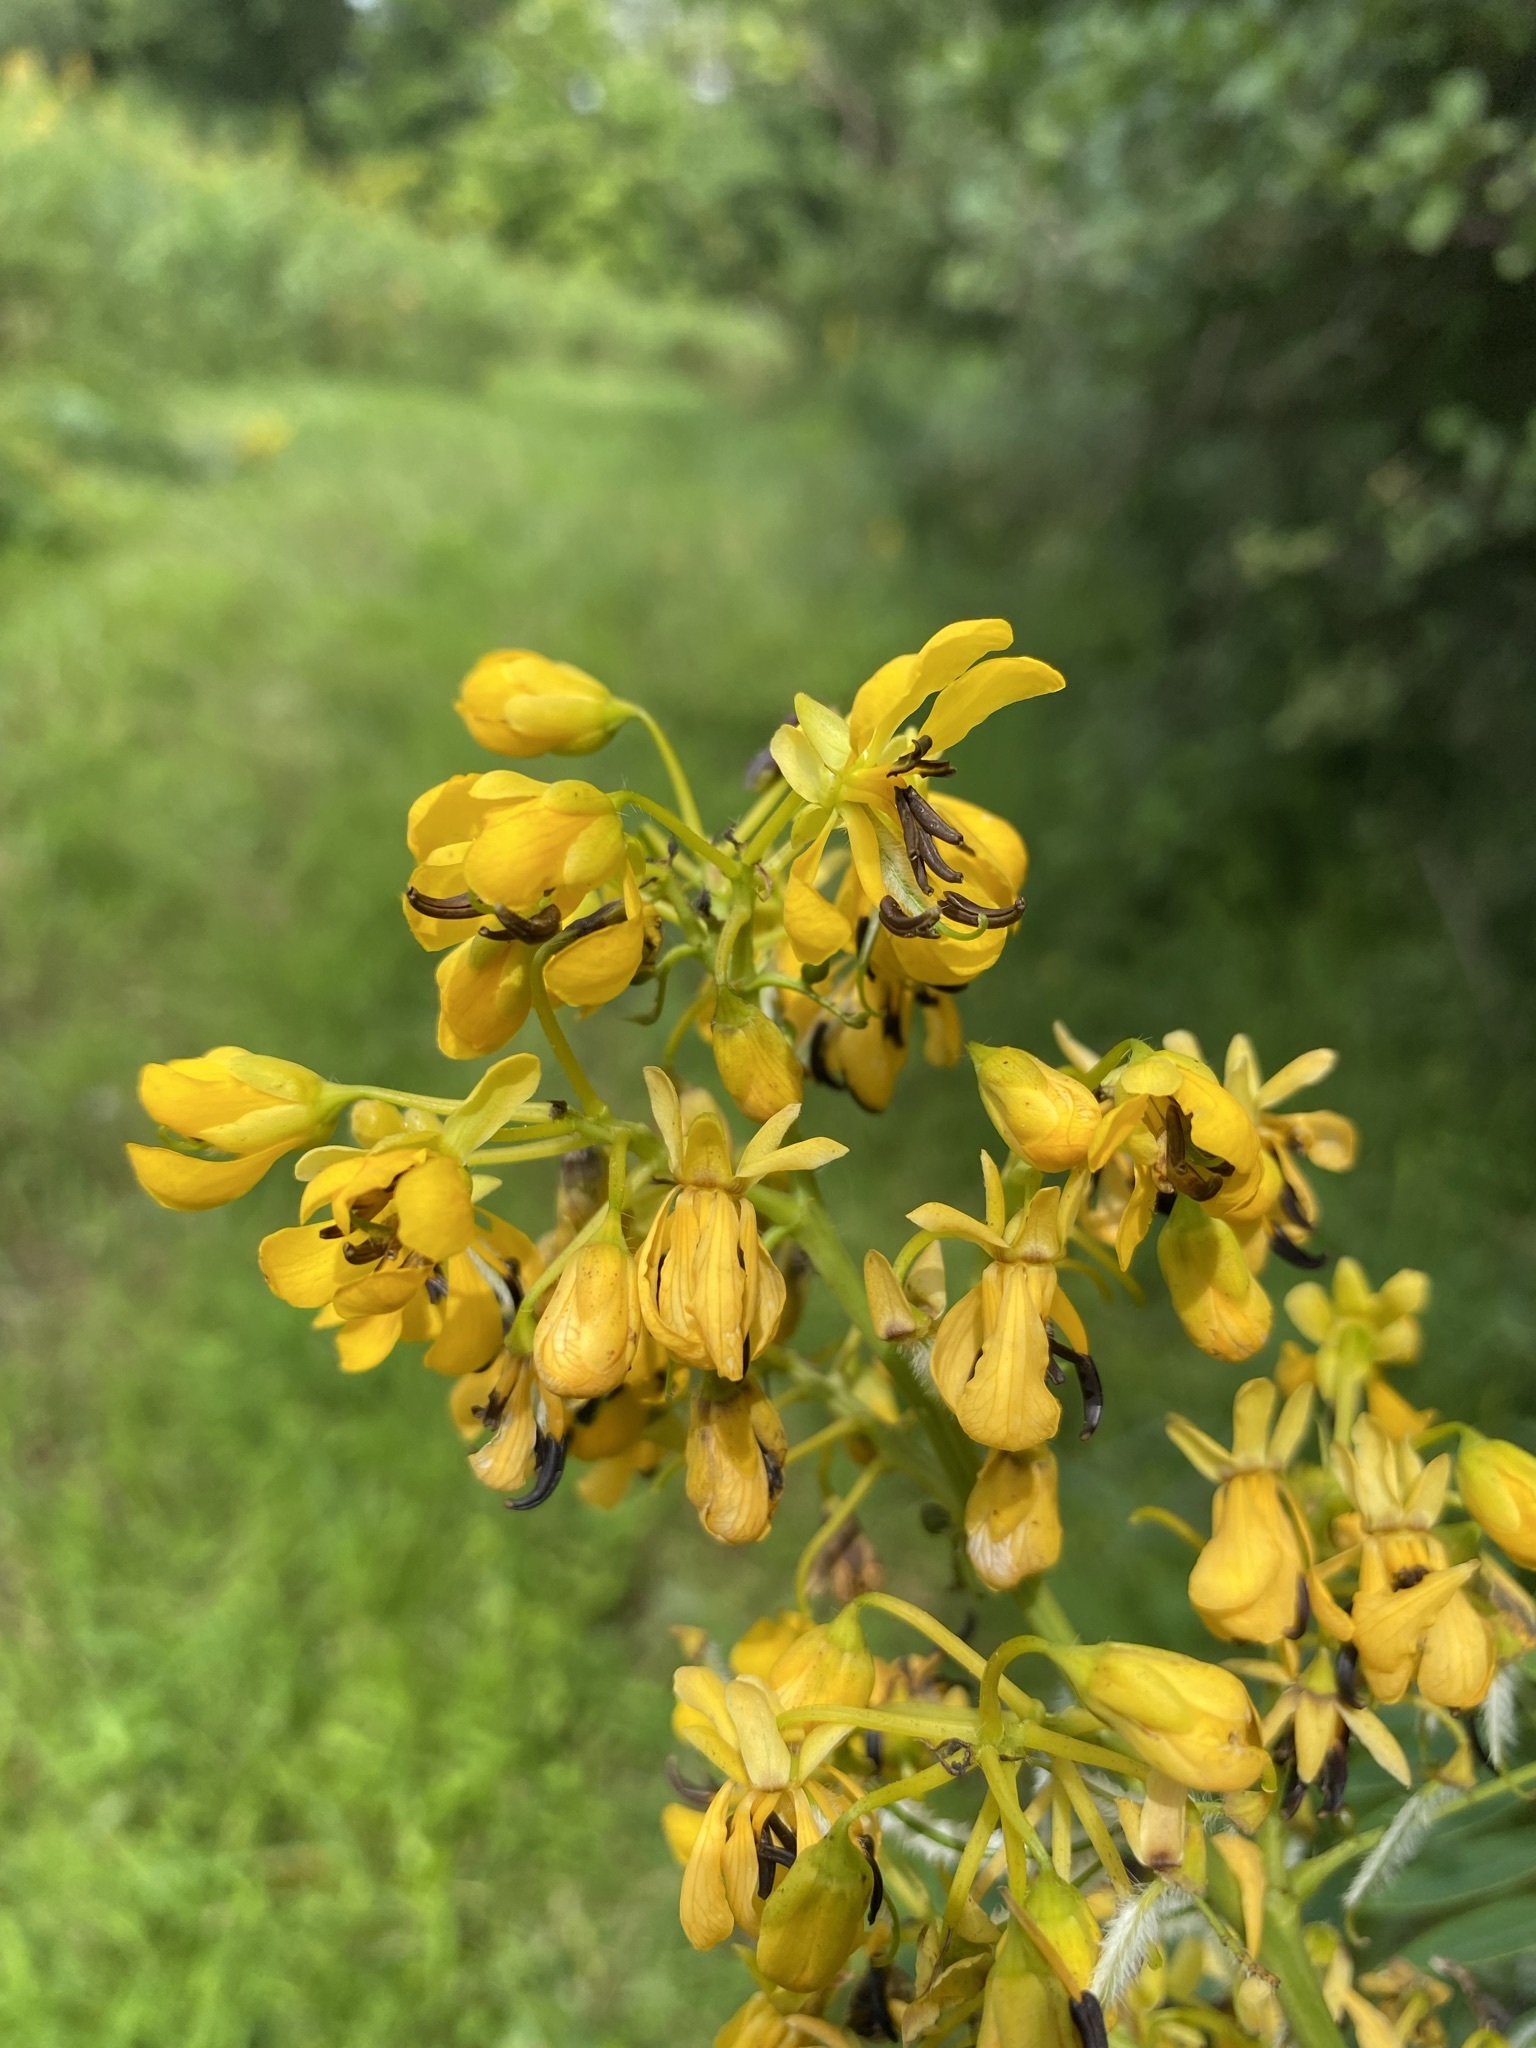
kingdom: Plantae
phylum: Tracheophyta
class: Magnoliopsida
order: Fabales
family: Fabaceae
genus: Senna
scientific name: Senna hebecarpa
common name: Wild senna
